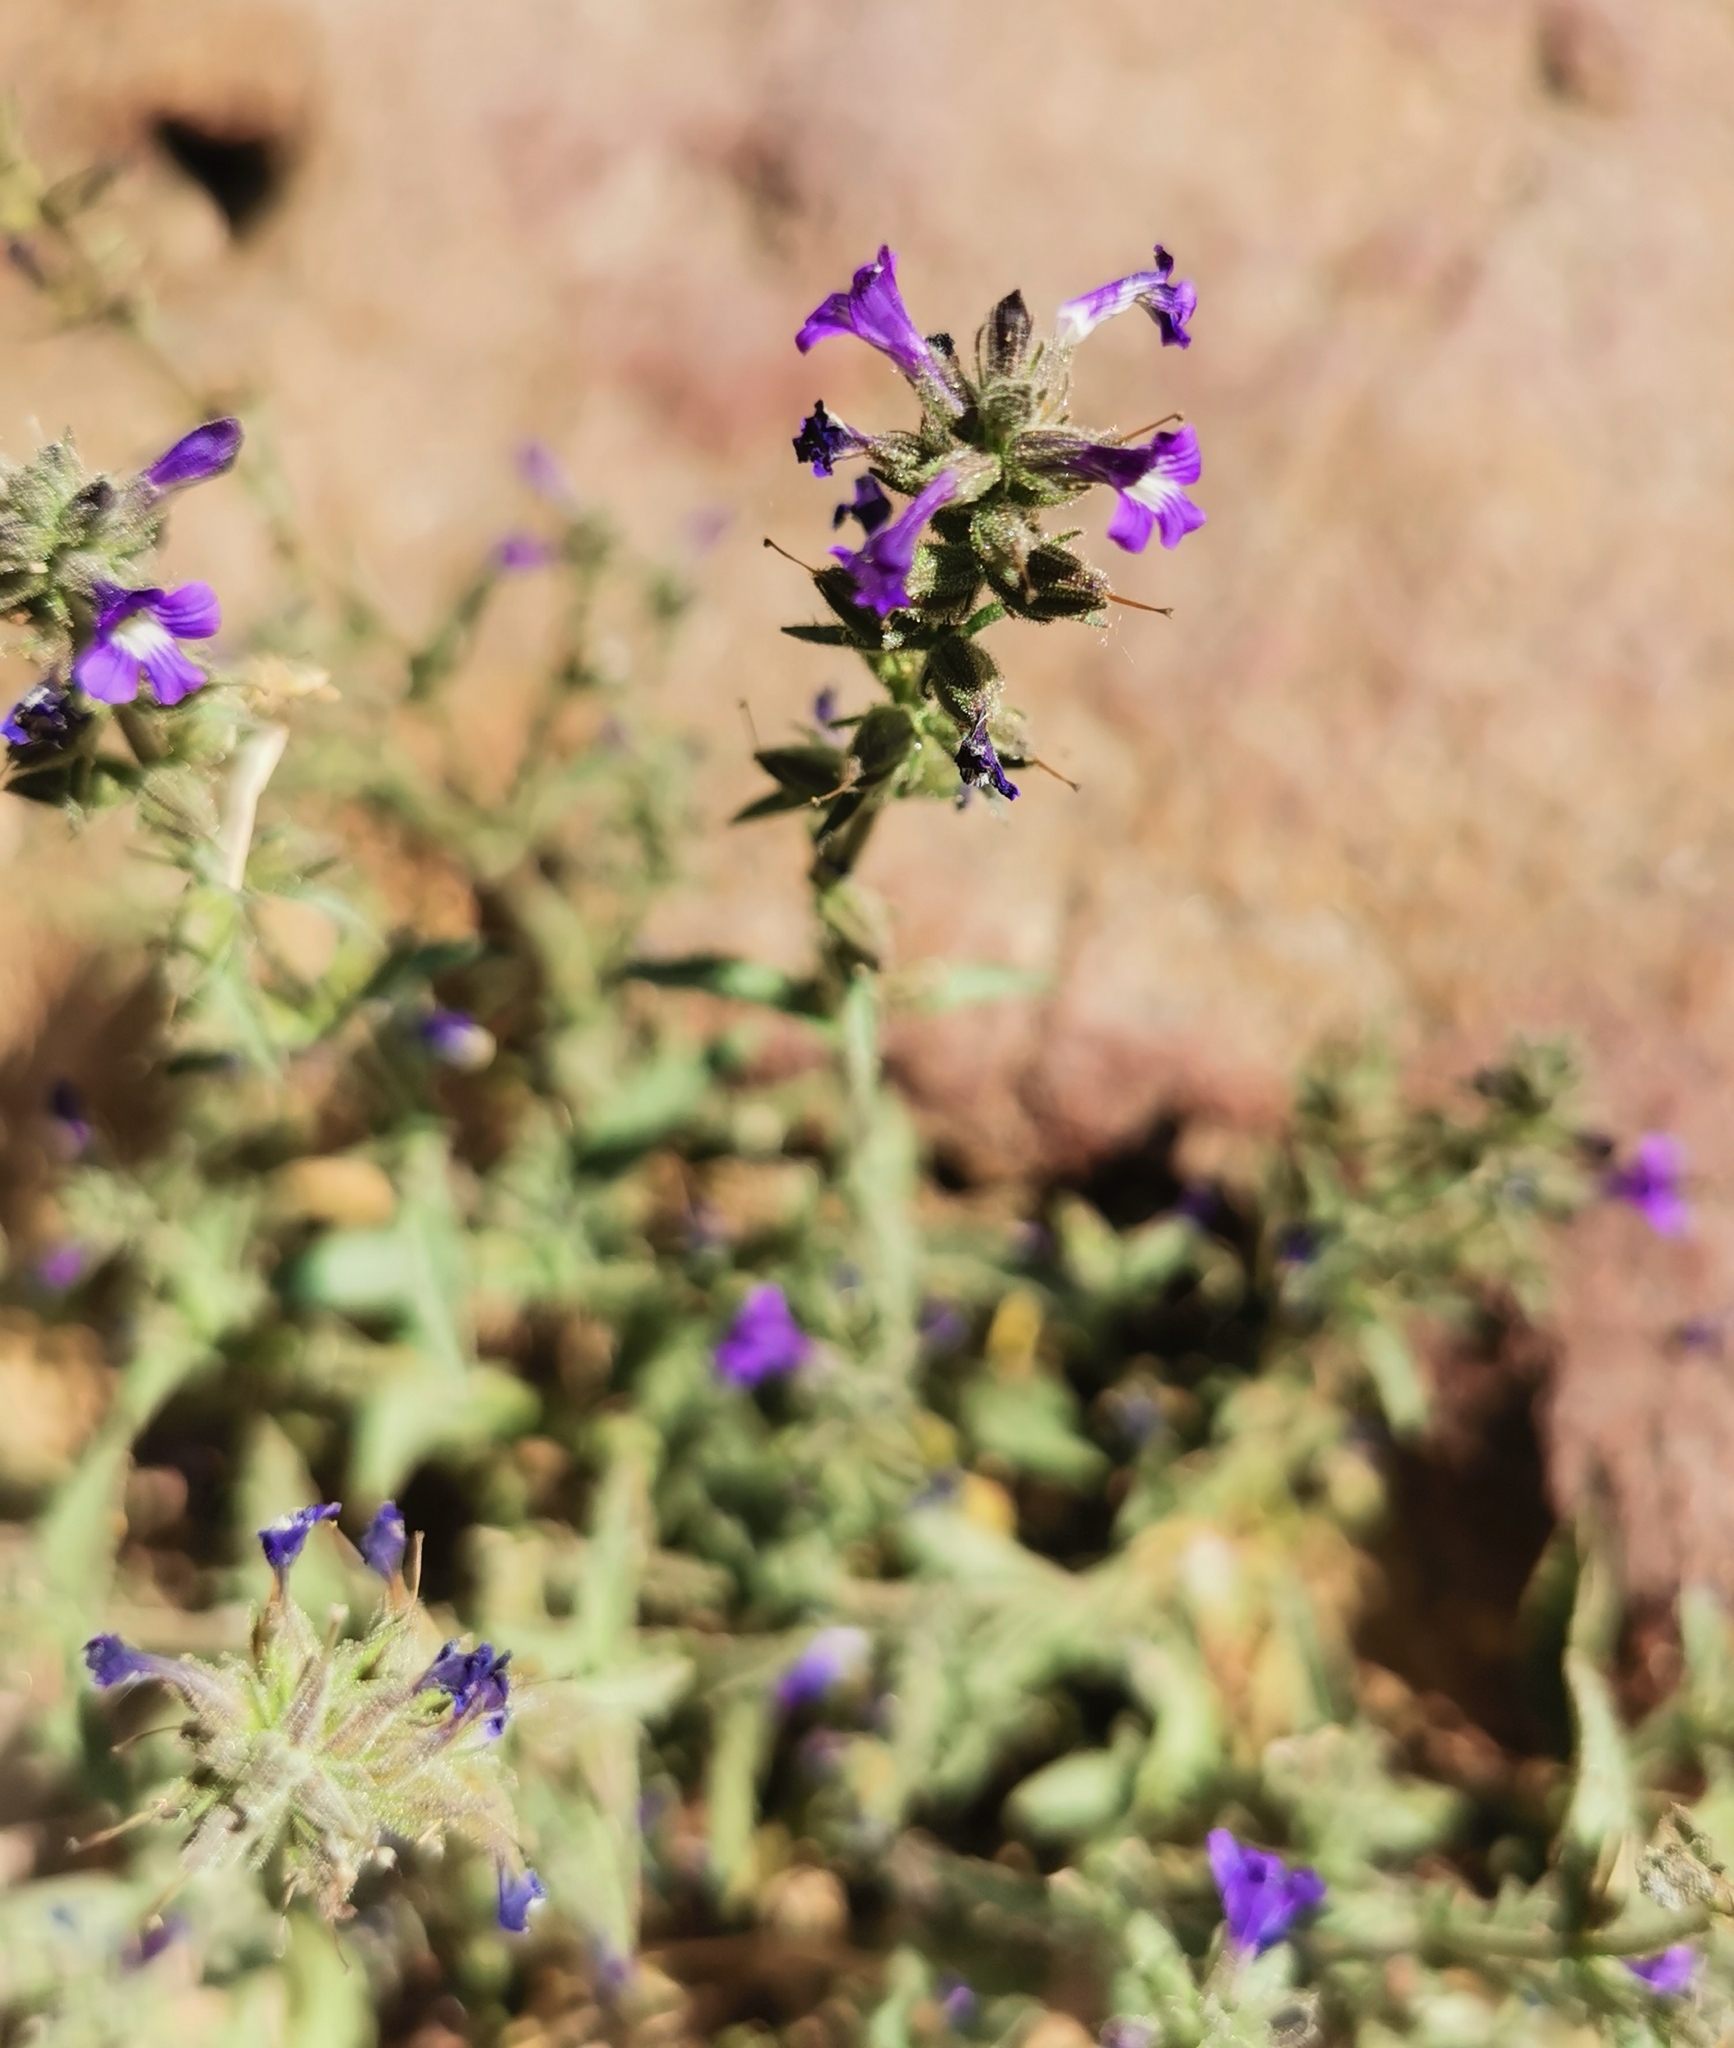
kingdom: Plantae
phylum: Tracheophyta
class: Magnoliopsida
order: Lamiales
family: Plantaginaceae
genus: Stemodia
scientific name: Stemodia durantifolia
